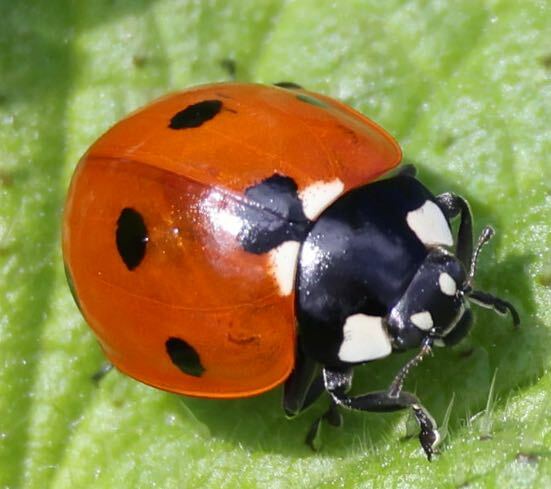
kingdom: Animalia
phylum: Arthropoda
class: Insecta
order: Coleoptera
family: Coccinellidae
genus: Coccinella
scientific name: Coccinella septempunctata
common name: Sevenspotted lady beetle
